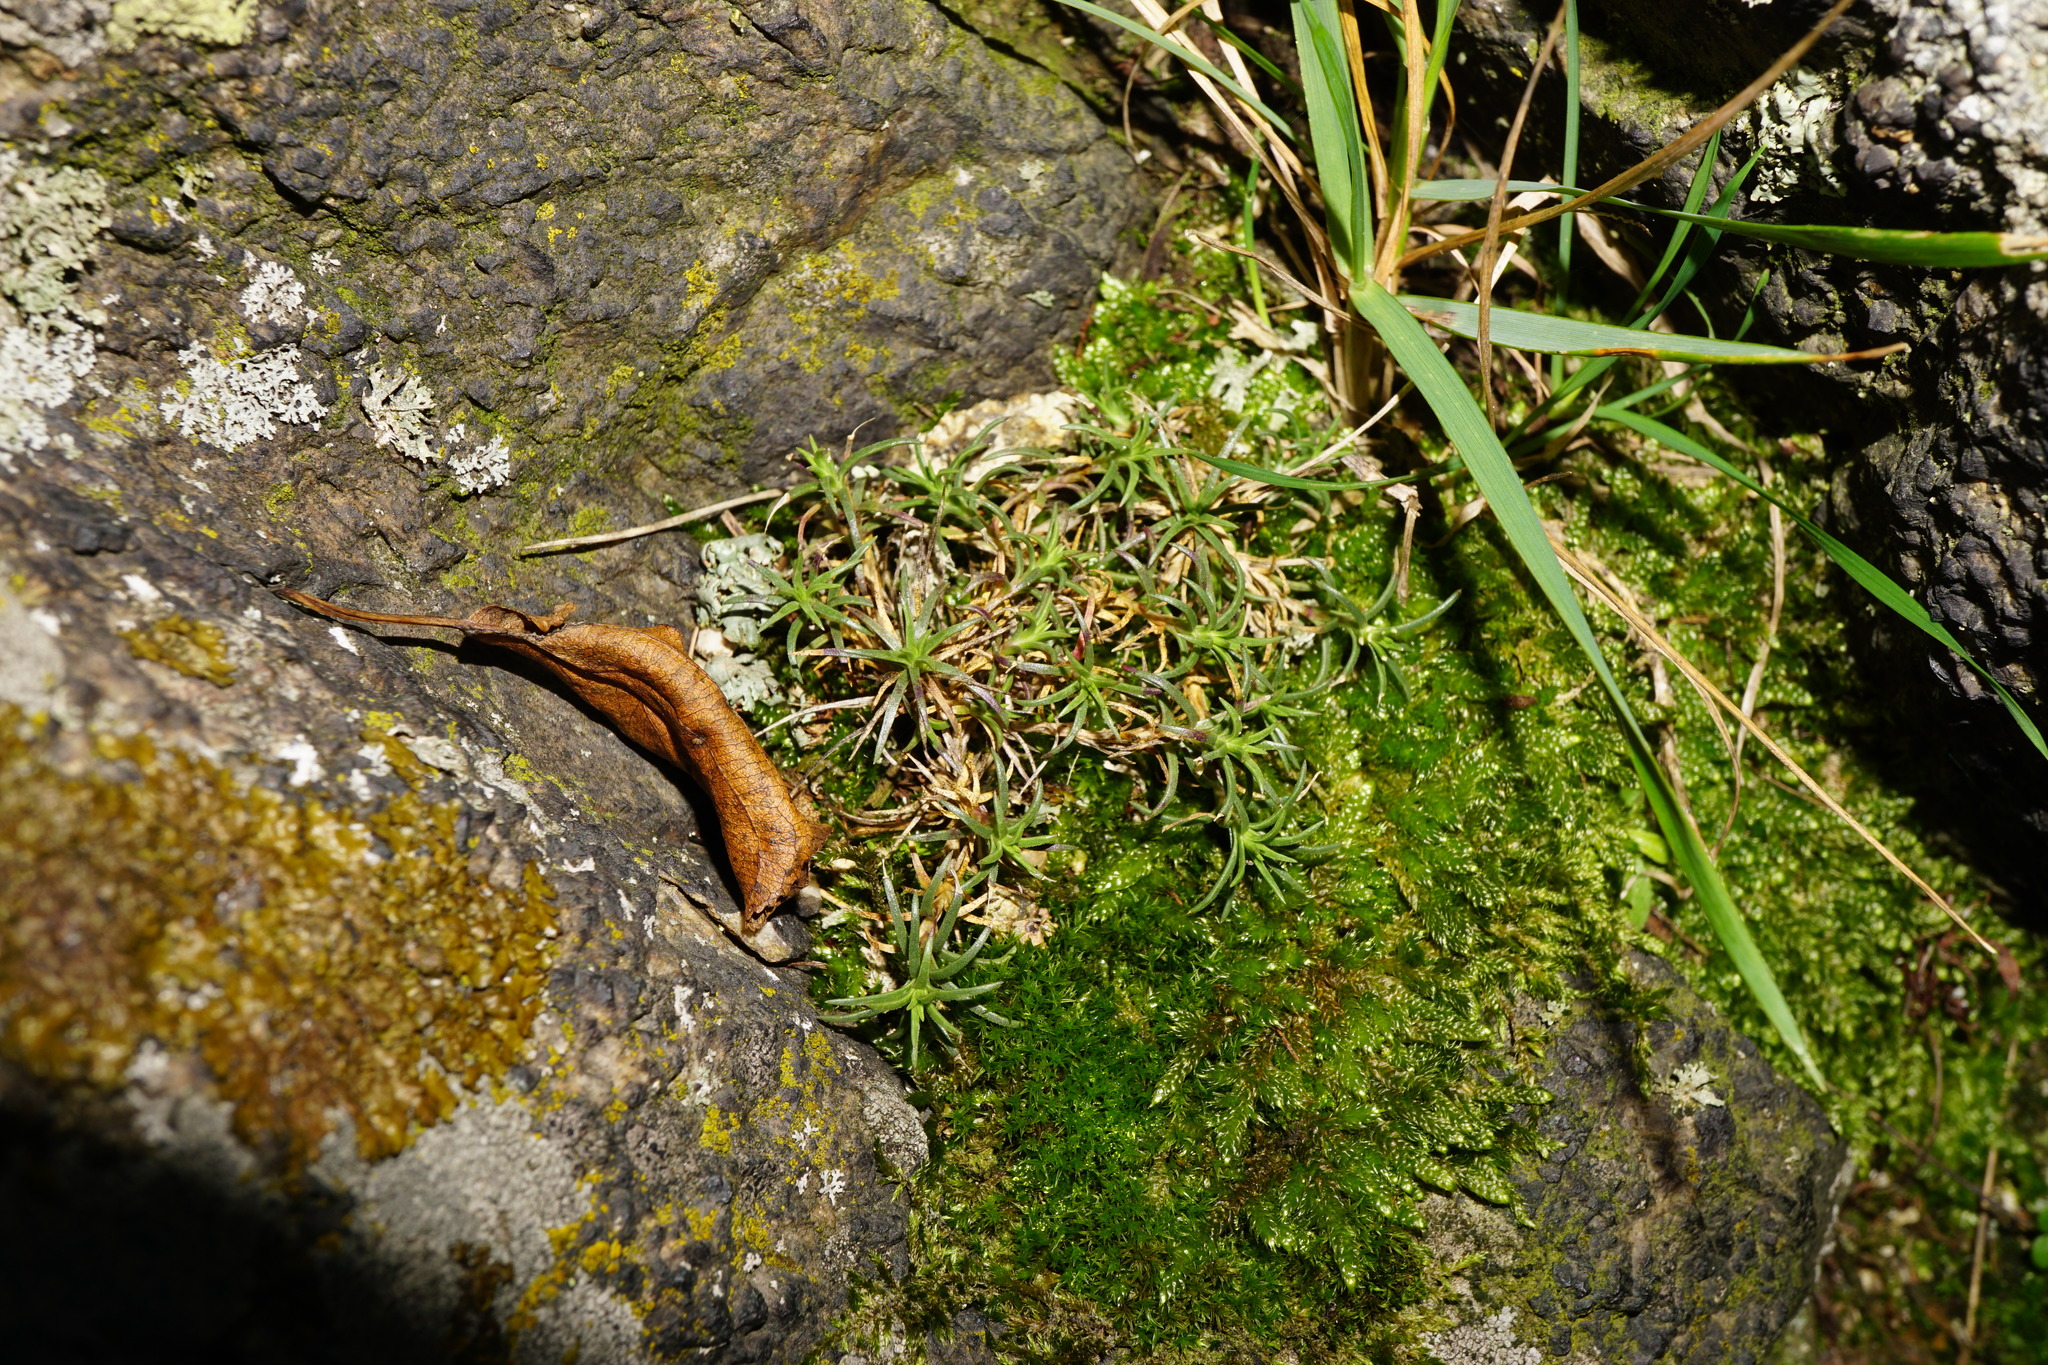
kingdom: Plantae
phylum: Tracheophyta
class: Magnoliopsida
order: Caryophyllales
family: Caryophyllaceae
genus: Scleranthus
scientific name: Scleranthus perennis
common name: Perennial knawel
